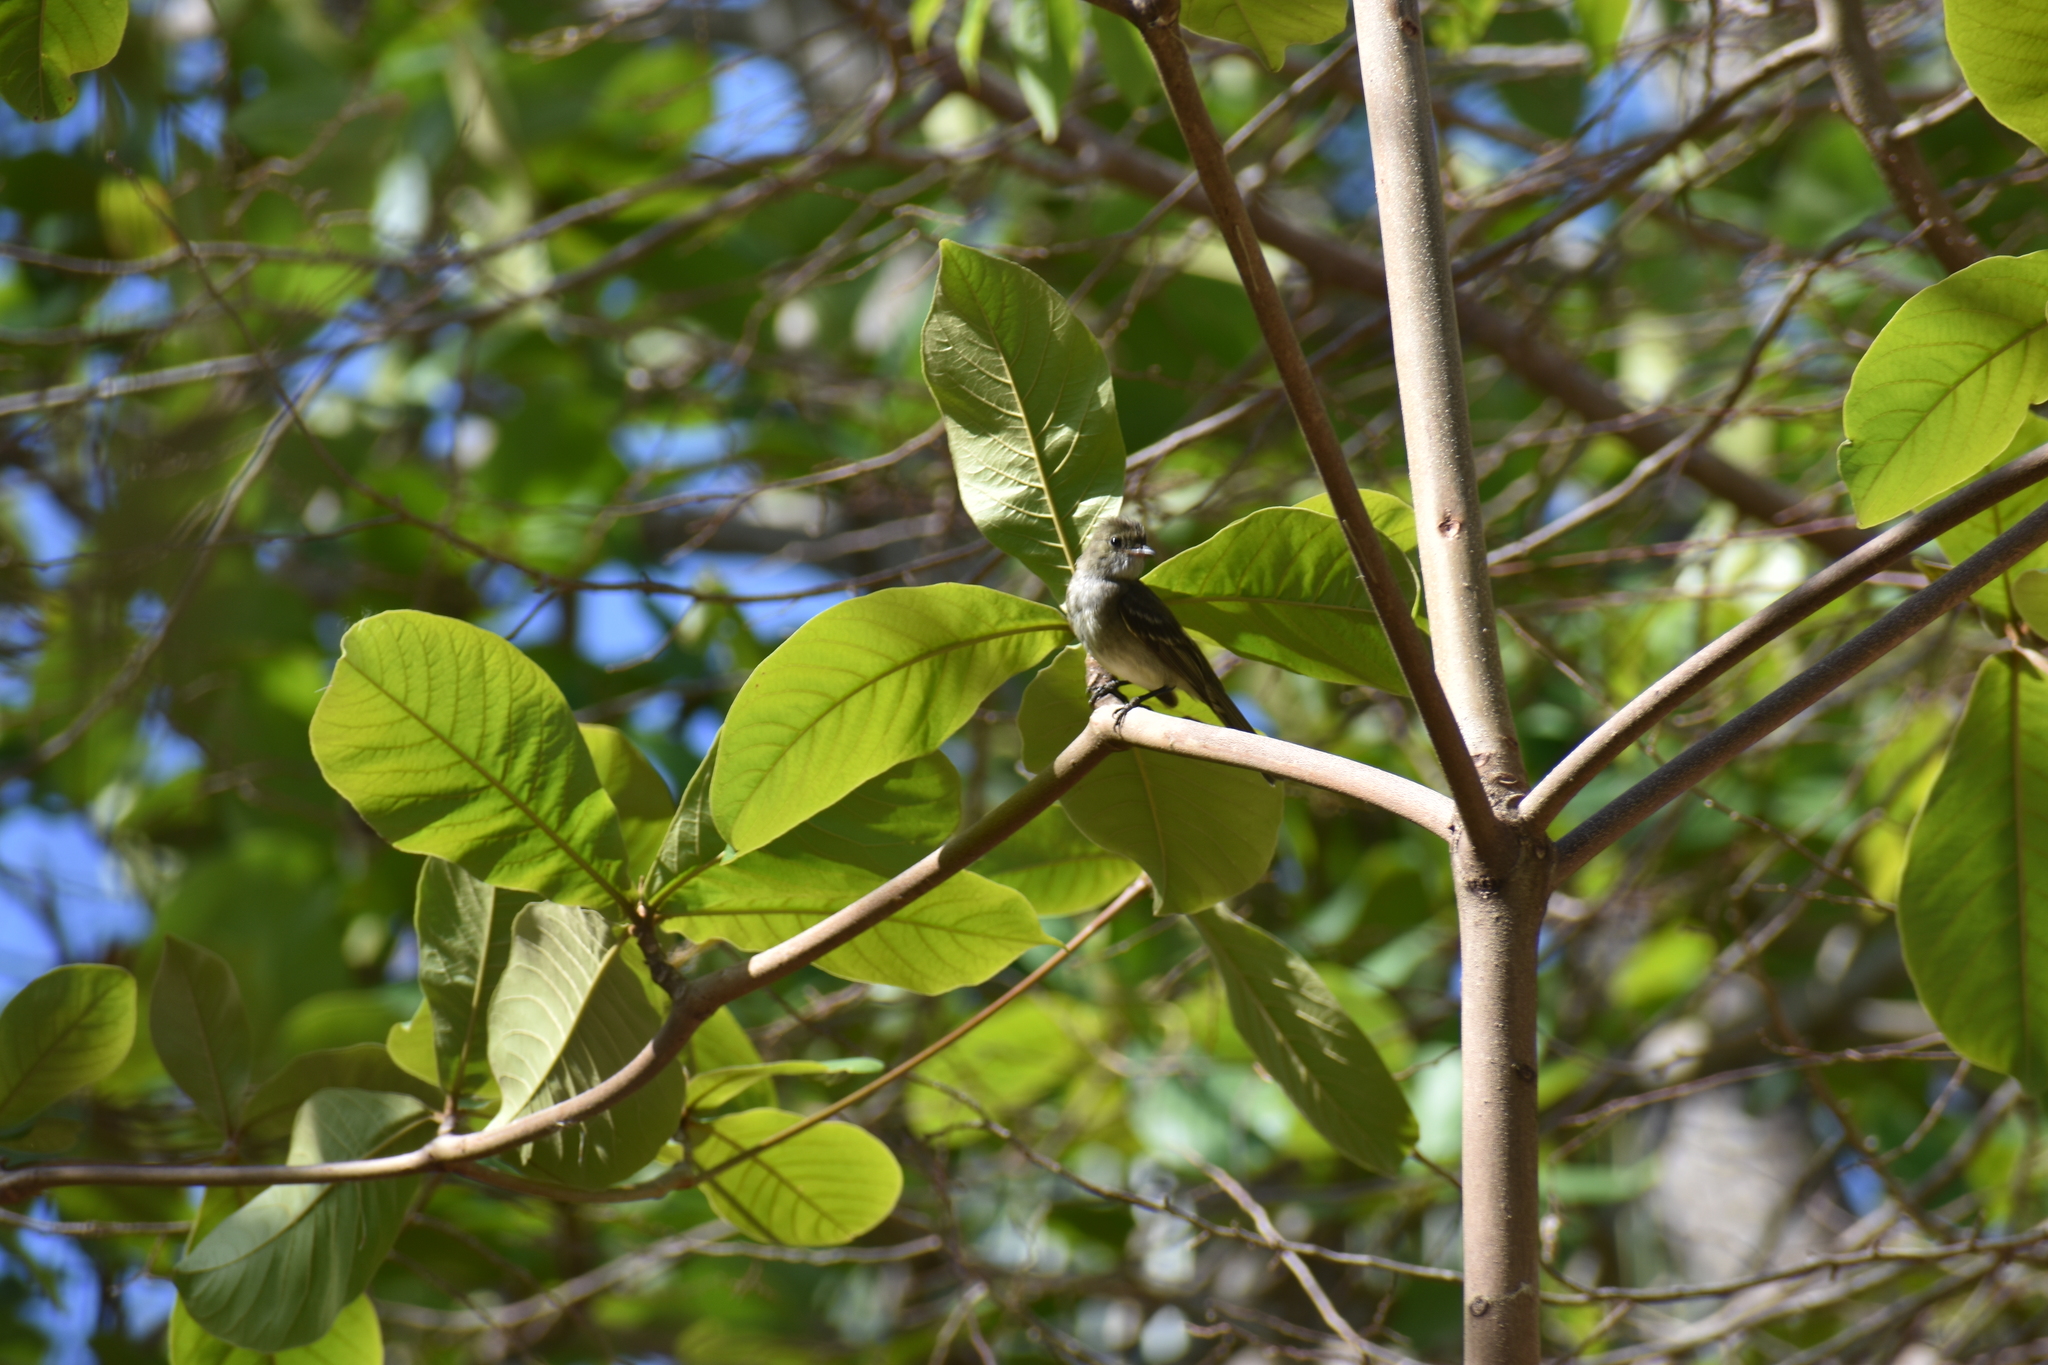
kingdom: Animalia
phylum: Chordata
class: Aves
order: Passeriformes
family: Tyrannidae
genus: Elaenia
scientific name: Elaenia martinica
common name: Caribbean elaenia
